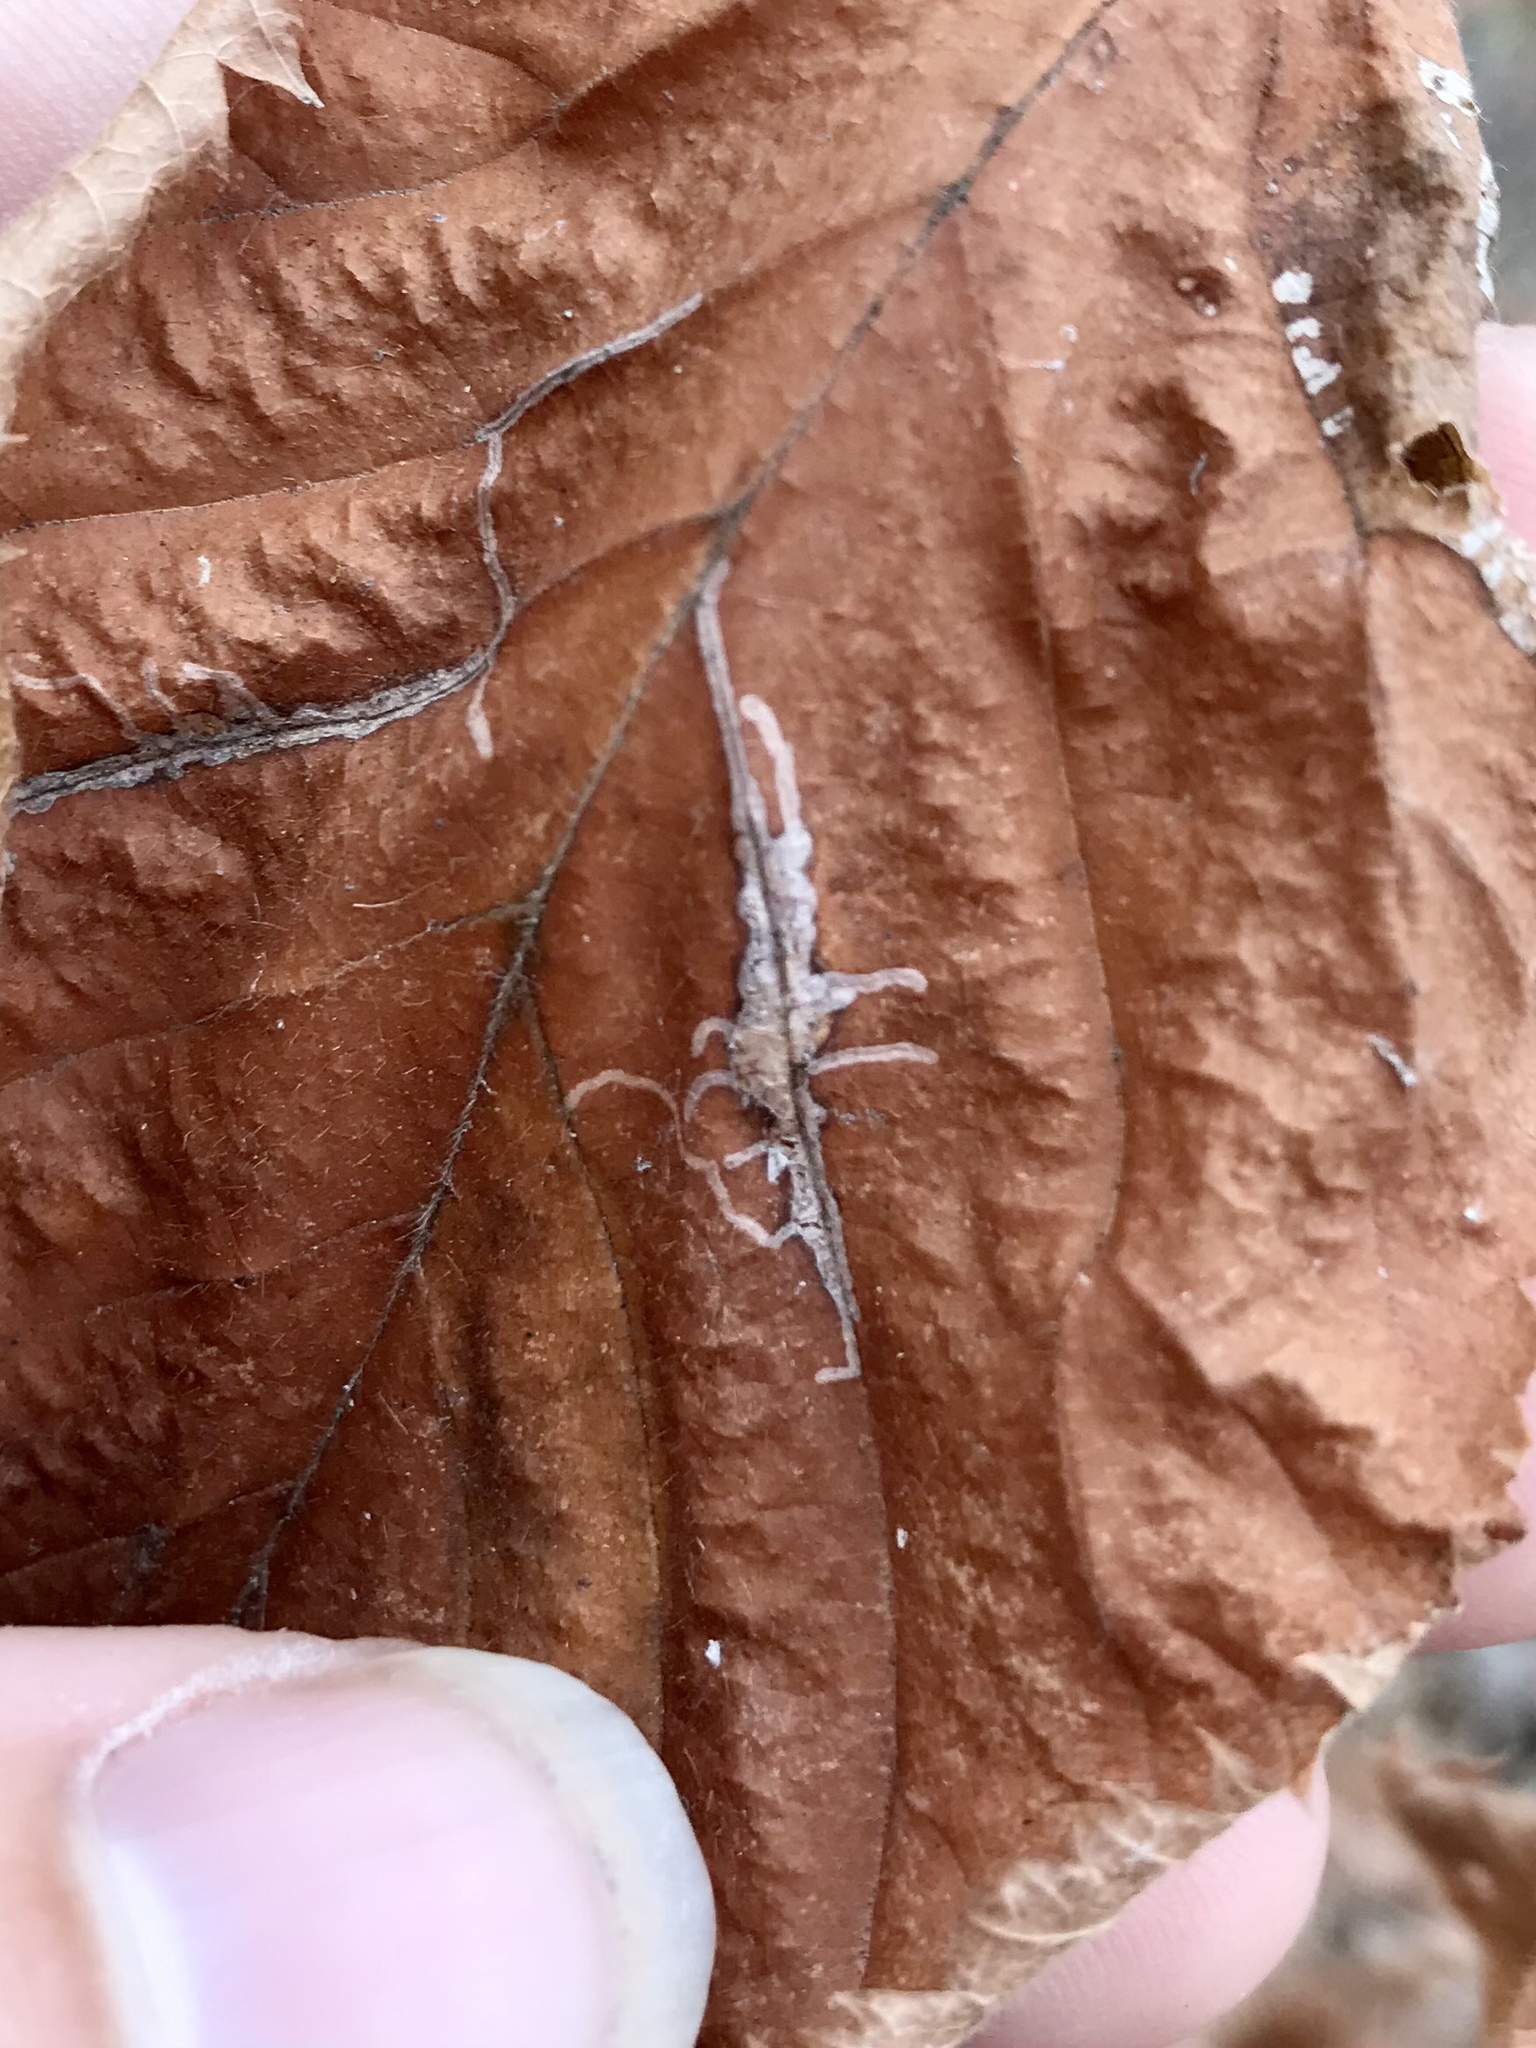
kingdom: Animalia
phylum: Arthropoda
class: Insecta
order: Lepidoptera
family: Gracillariidae
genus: Caloptilia
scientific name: Caloptilia ostryaeella
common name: Ironwood leafcone moth
